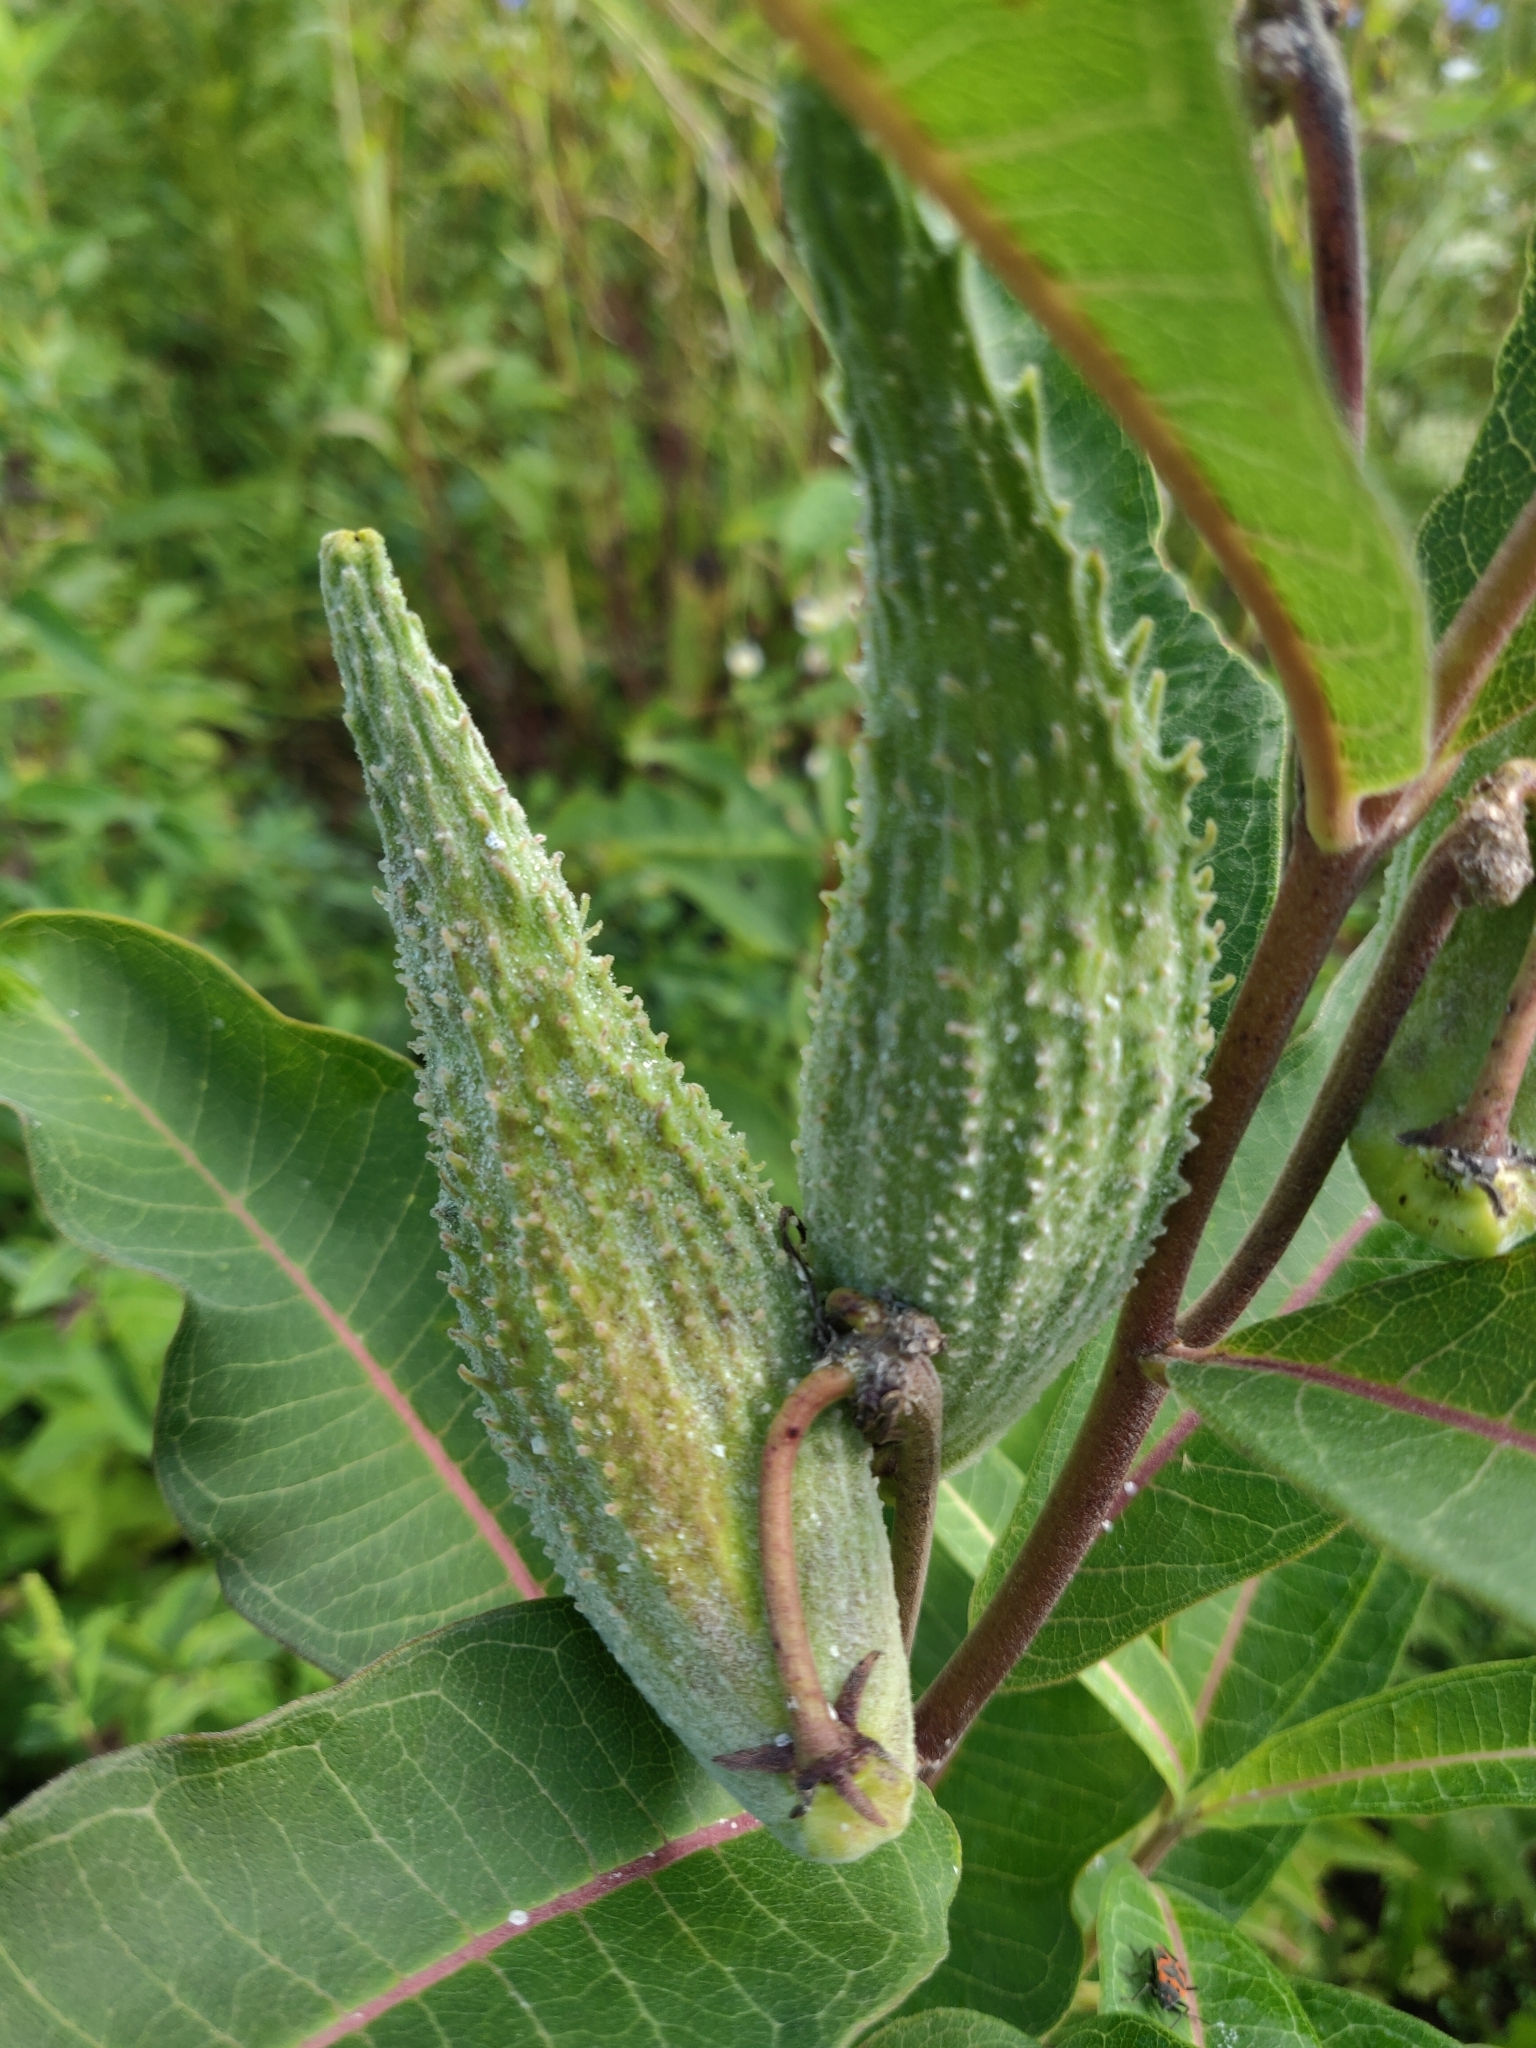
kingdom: Plantae
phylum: Tracheophyta
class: Magnoliopsida
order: Gentianales
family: Apocynaceae
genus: Asclepias
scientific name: Asclepias syriaca
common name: Common milkweed
